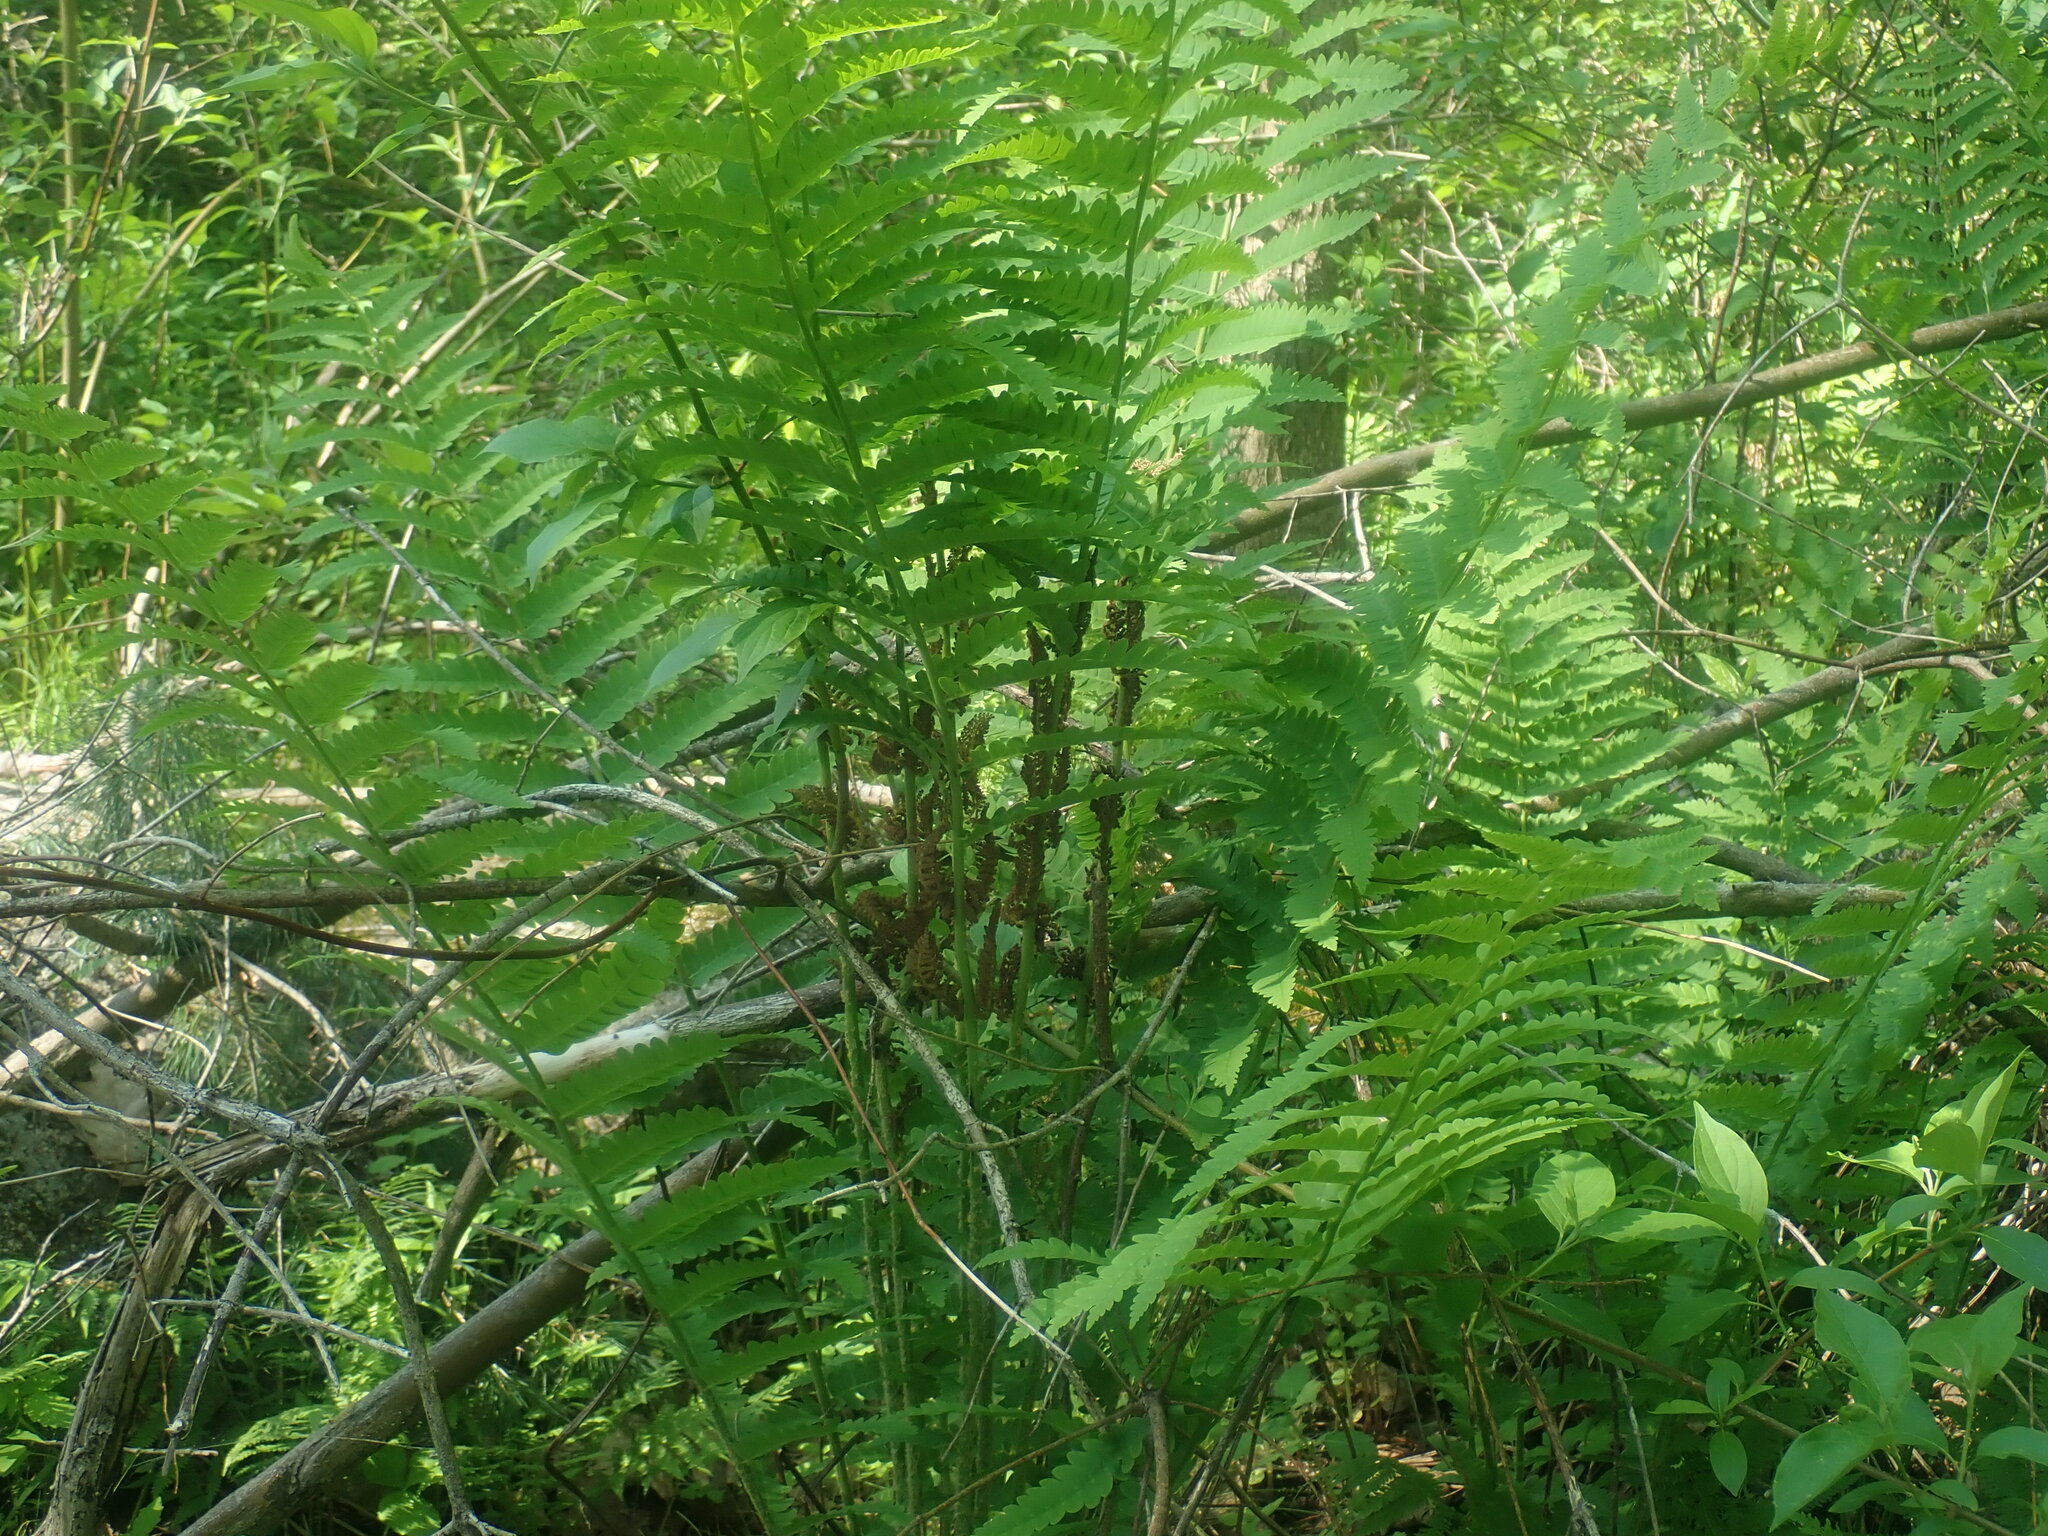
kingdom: Plantae
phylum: Tracheophyta
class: Polypodiopsida
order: Osmundales
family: Osmundaceae
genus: Claytosmunda
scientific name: Claytosmunda claytoniana
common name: Clayton's fern
